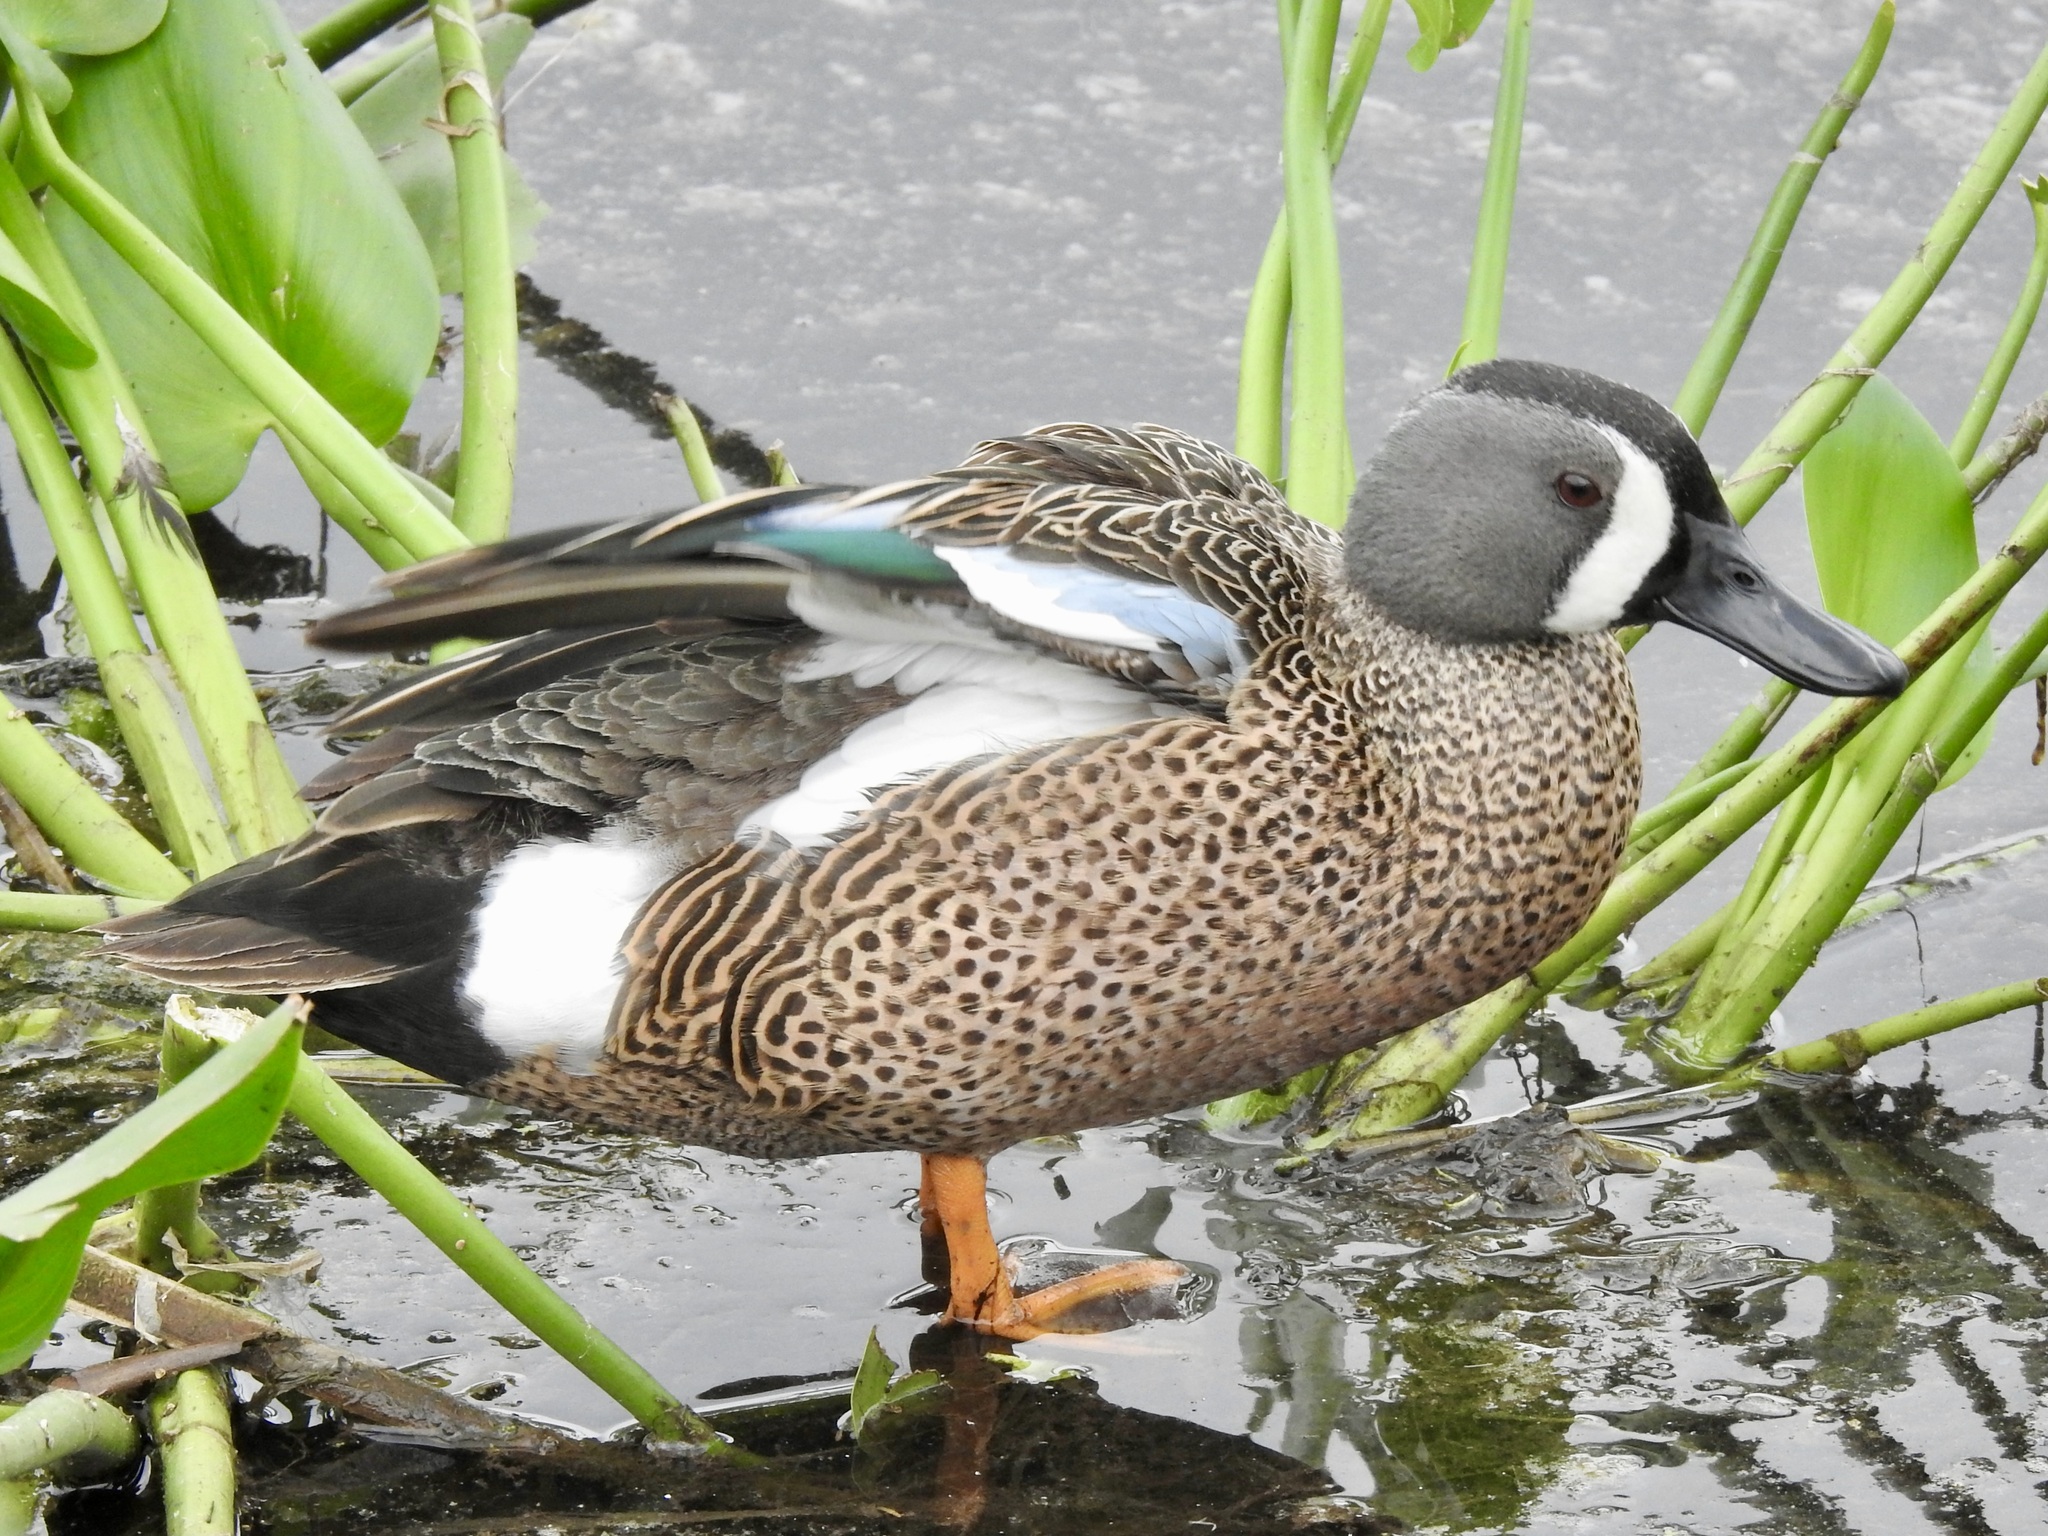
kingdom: Animalia
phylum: Chordata
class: Aves
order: Anseriformes
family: Anatidae
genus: Spatula
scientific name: Spatula discors
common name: Blue-winged teal
